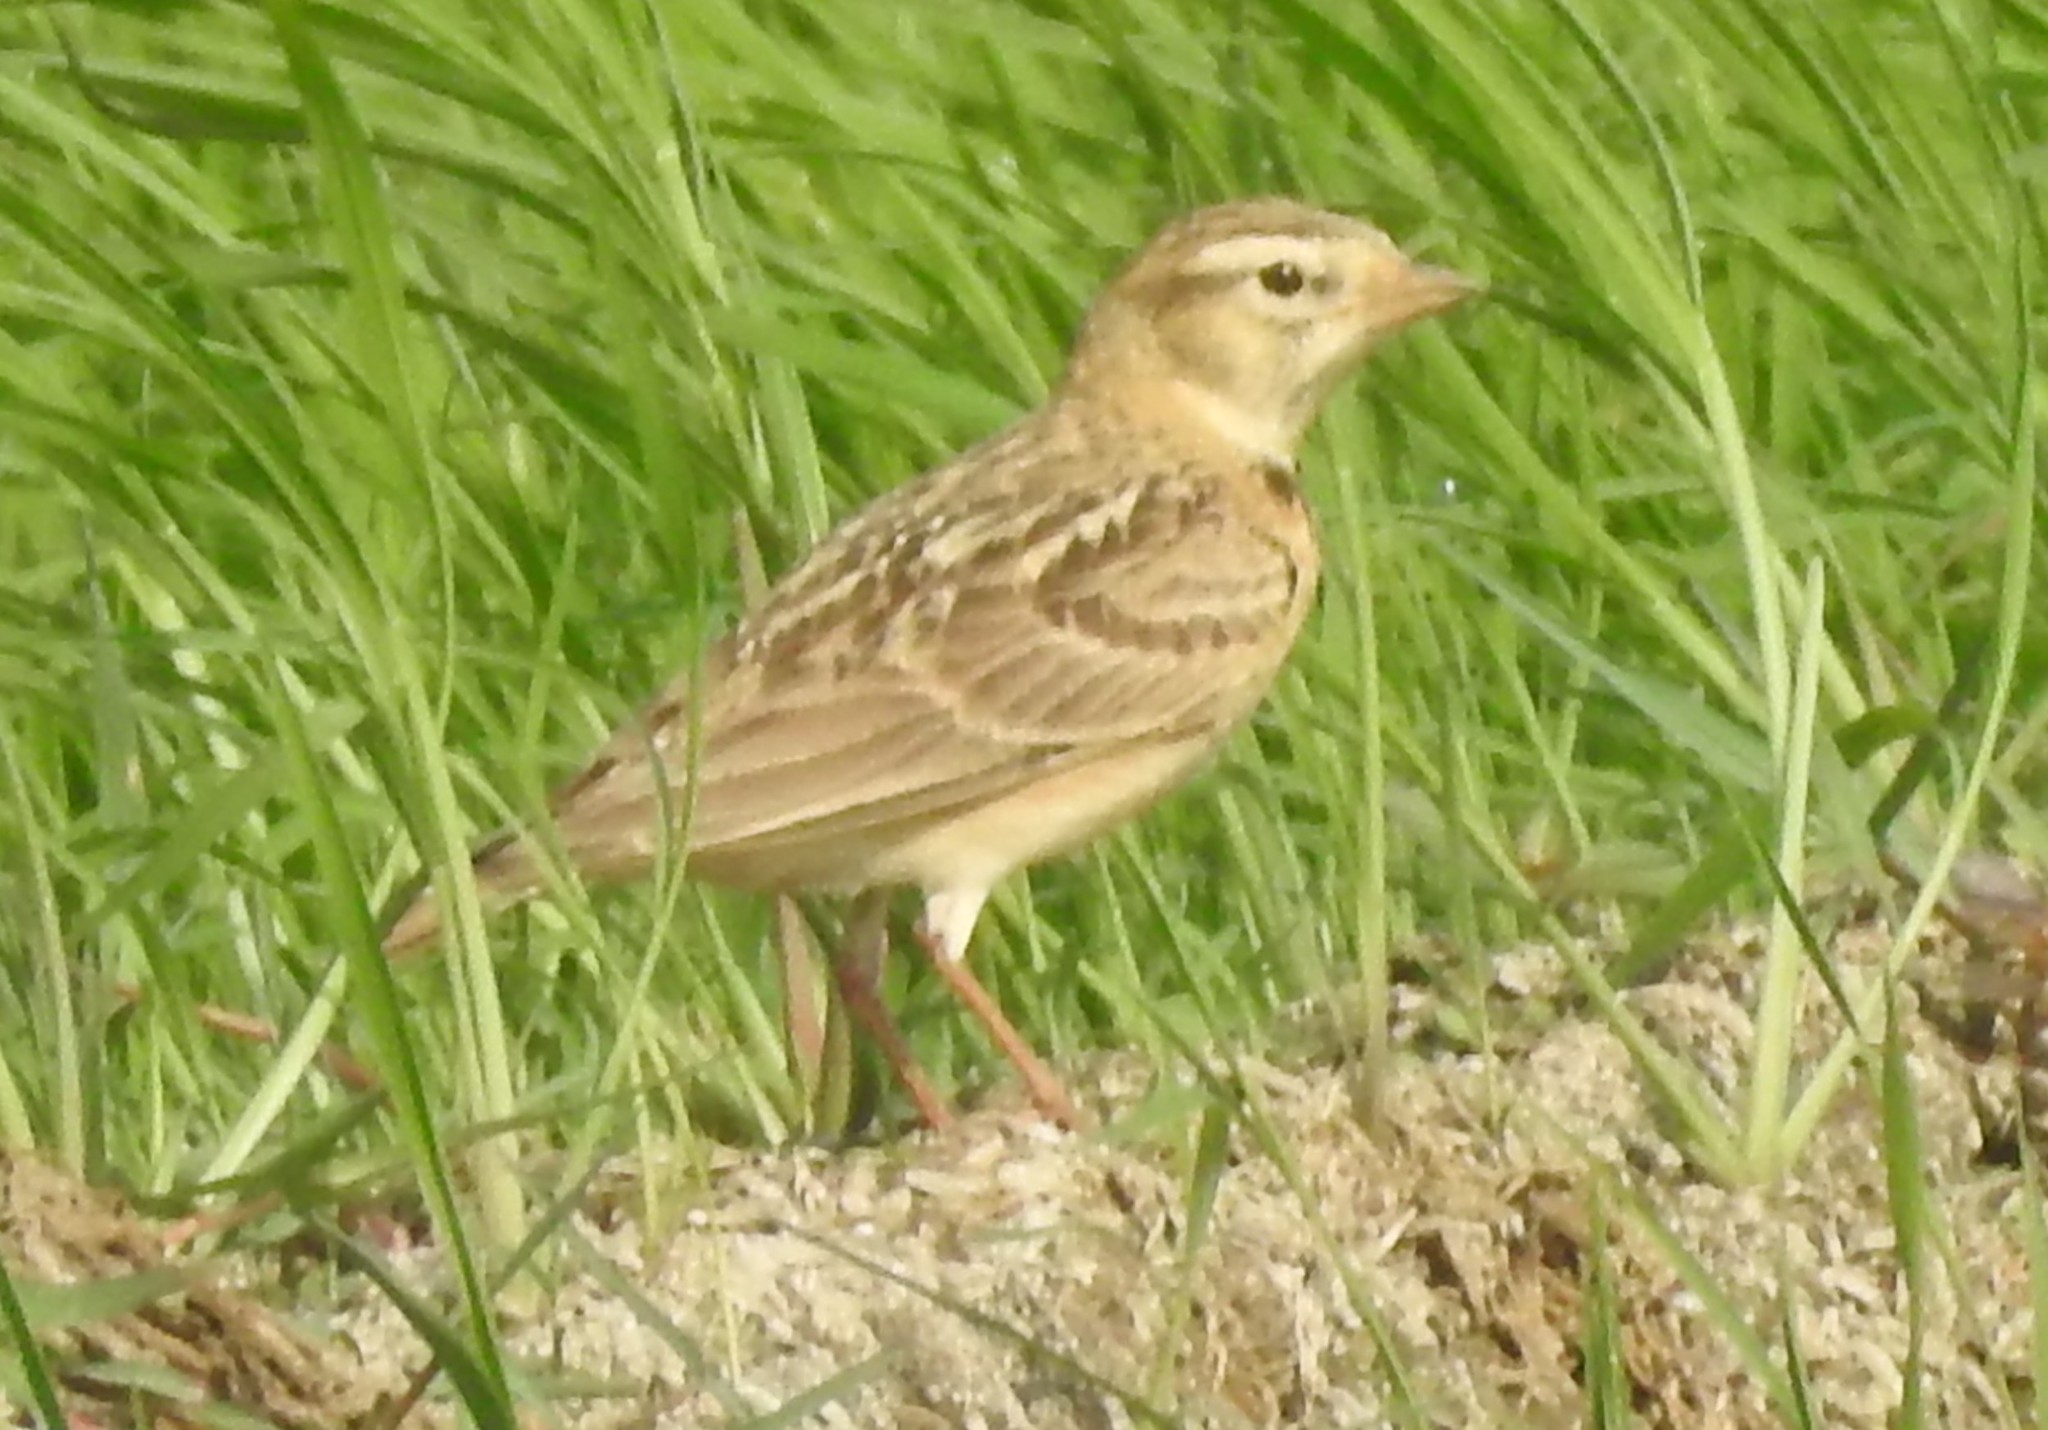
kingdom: Animalia
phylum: Chordata
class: Aves
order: Passeriformes
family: Alaudidae
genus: Calandrella
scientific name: Calandrella brachydactyla
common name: Greater short-toed lark
